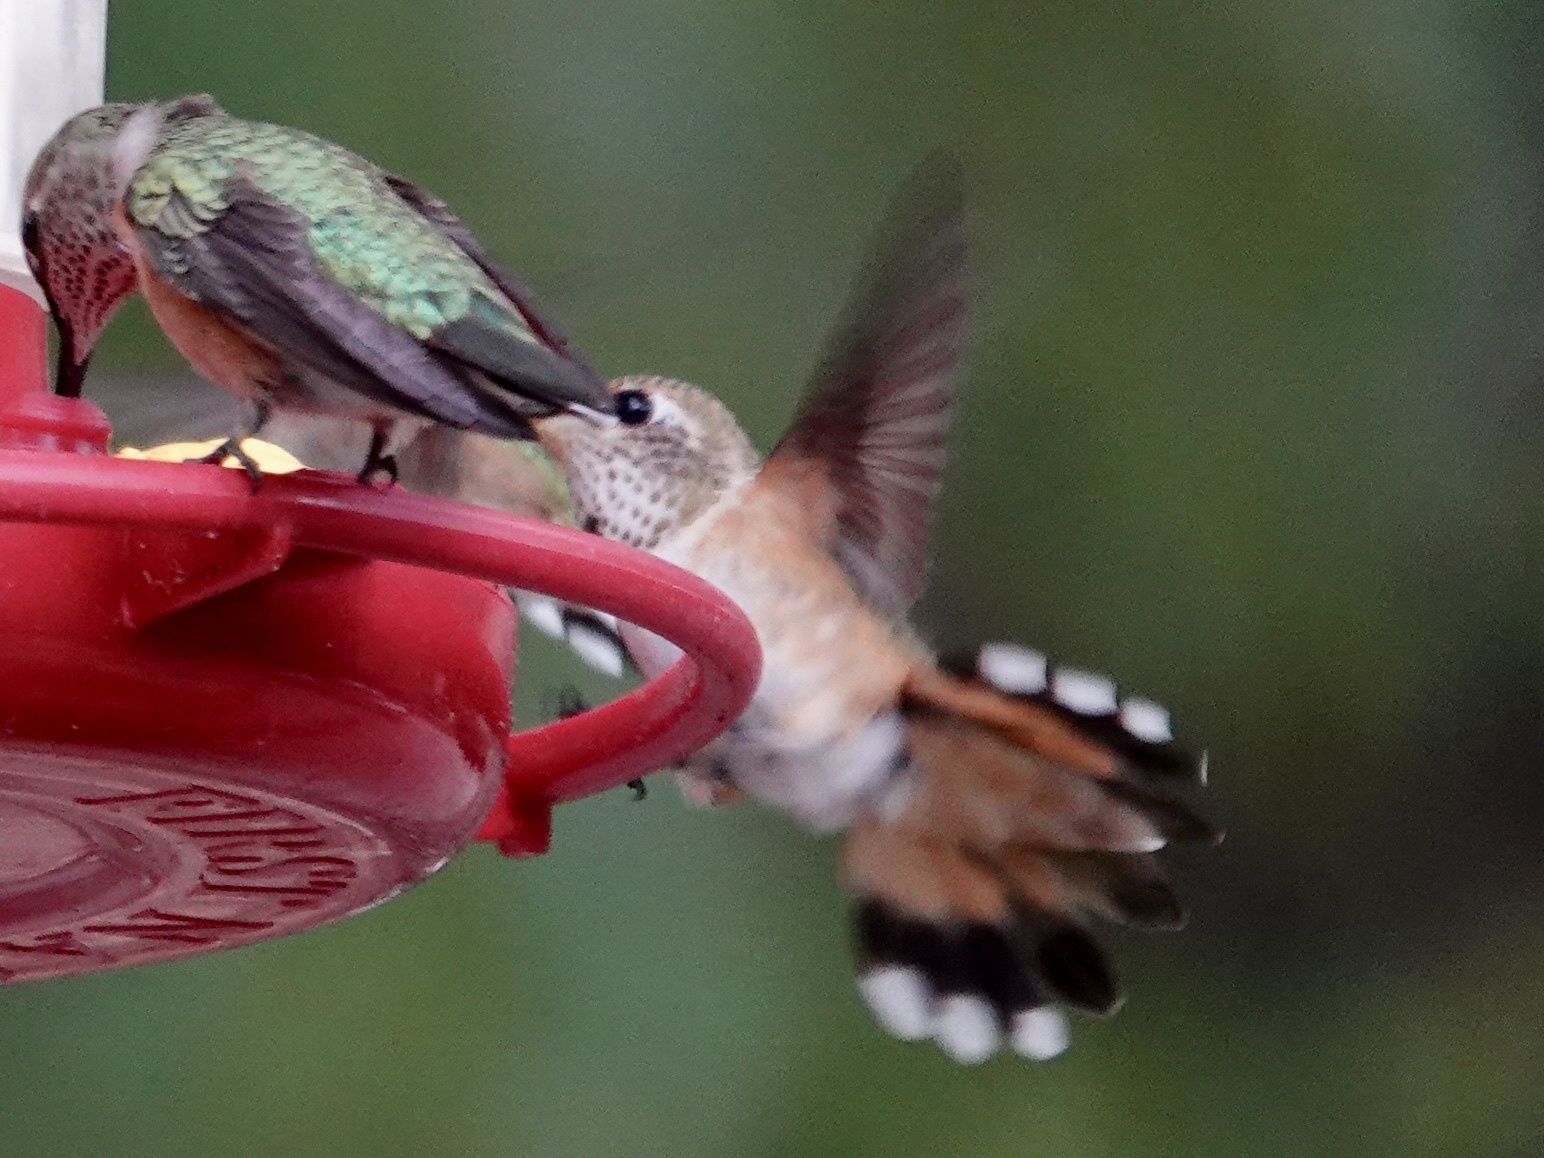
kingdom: Animalia
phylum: Chordata
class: Aves
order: Apodiformes
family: Trochilidae
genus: Selasphorus
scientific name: Selasphorus rufus
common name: Rufous hummingbird
